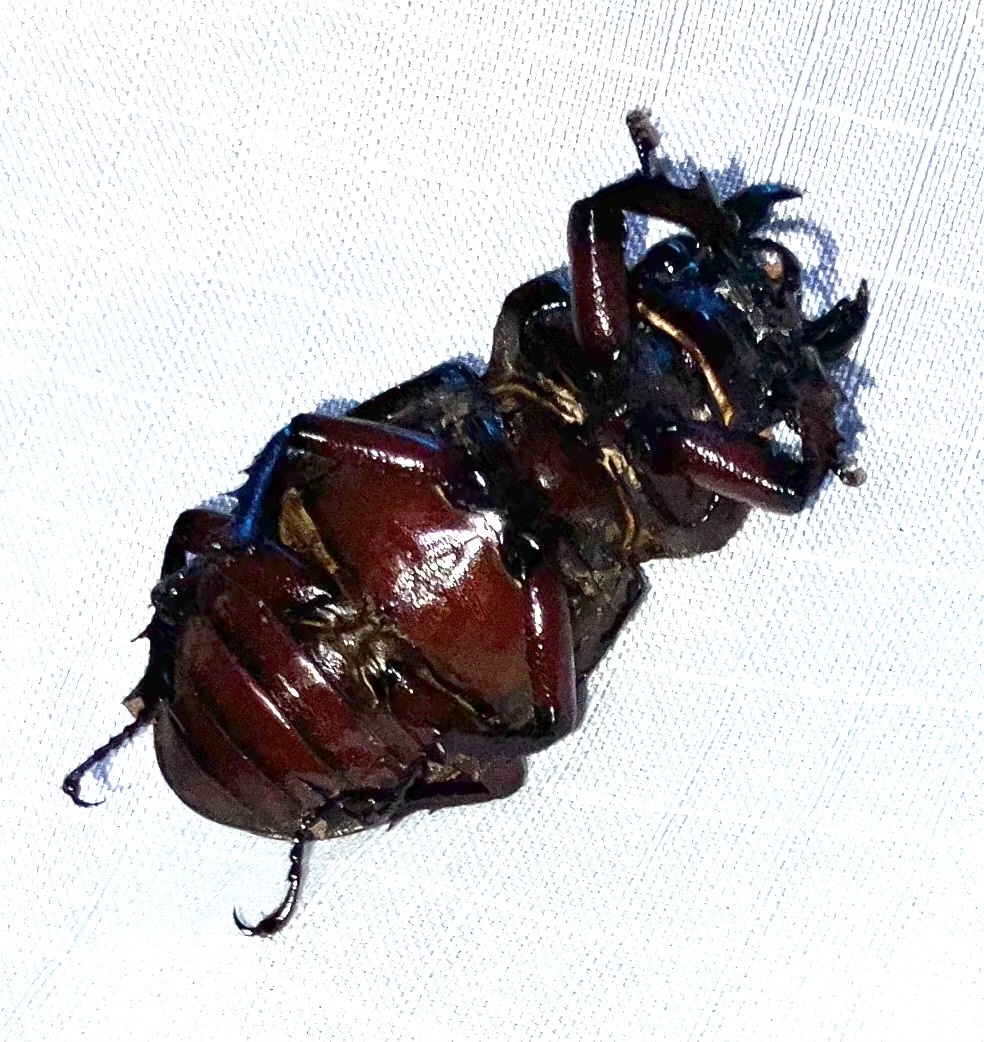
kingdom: Animalia
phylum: Arthropoda
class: Insecta
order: Coleoptera
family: Lucanidae
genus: Lucanus
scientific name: Lucanus capreolus
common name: Stag beetle
